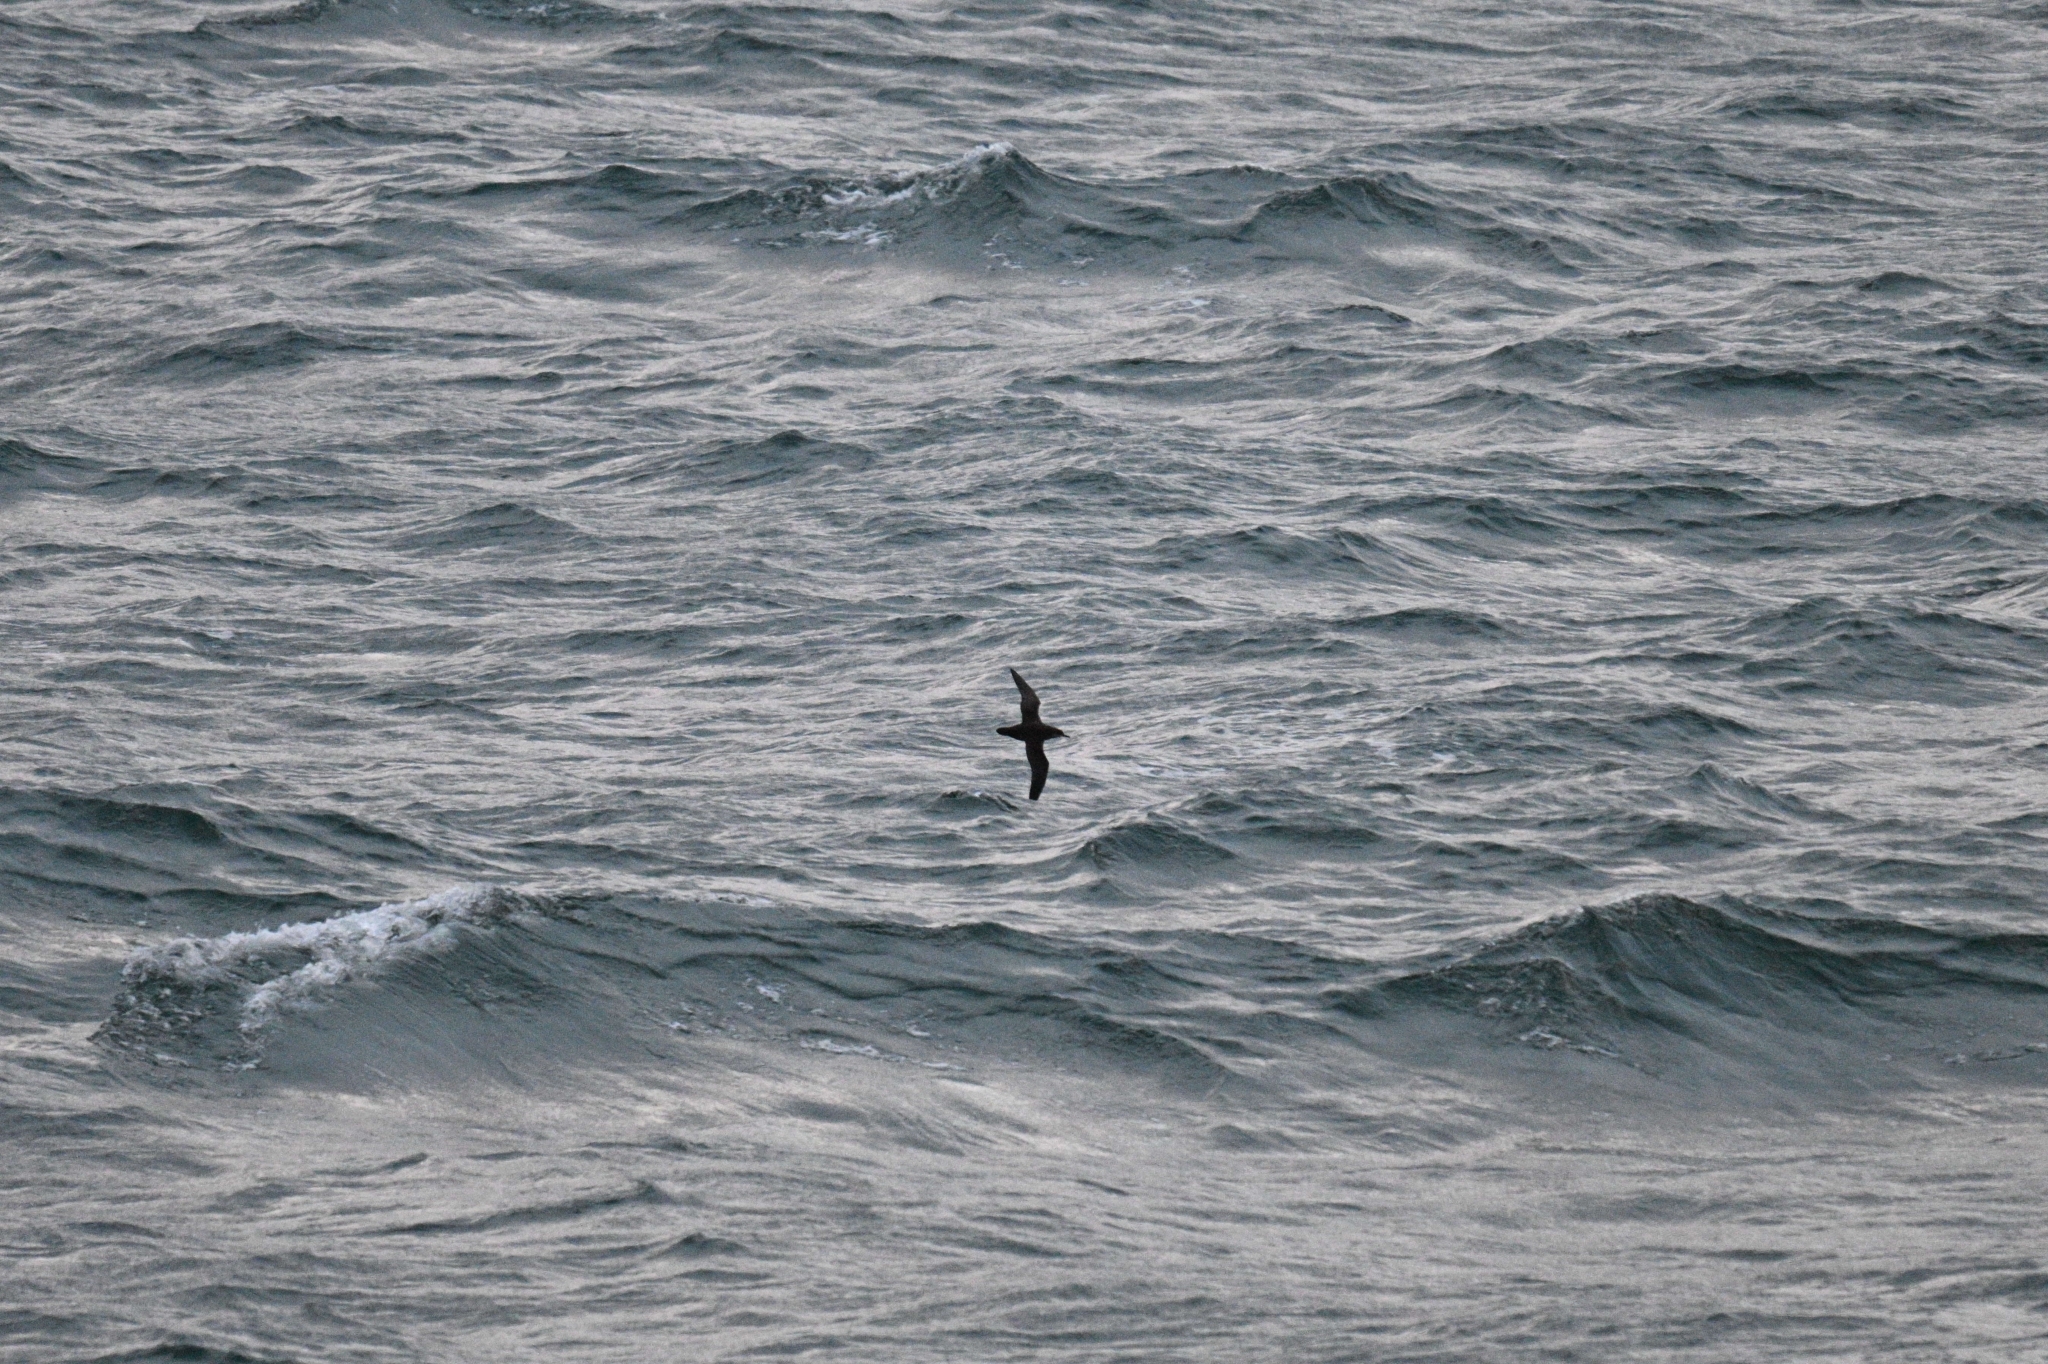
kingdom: Animalia
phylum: Chordata
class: Aves
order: Procellariiformes
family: Procellariidae
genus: Puffinus
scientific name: Puffinus mauretanicus
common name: Balearic shearwater
